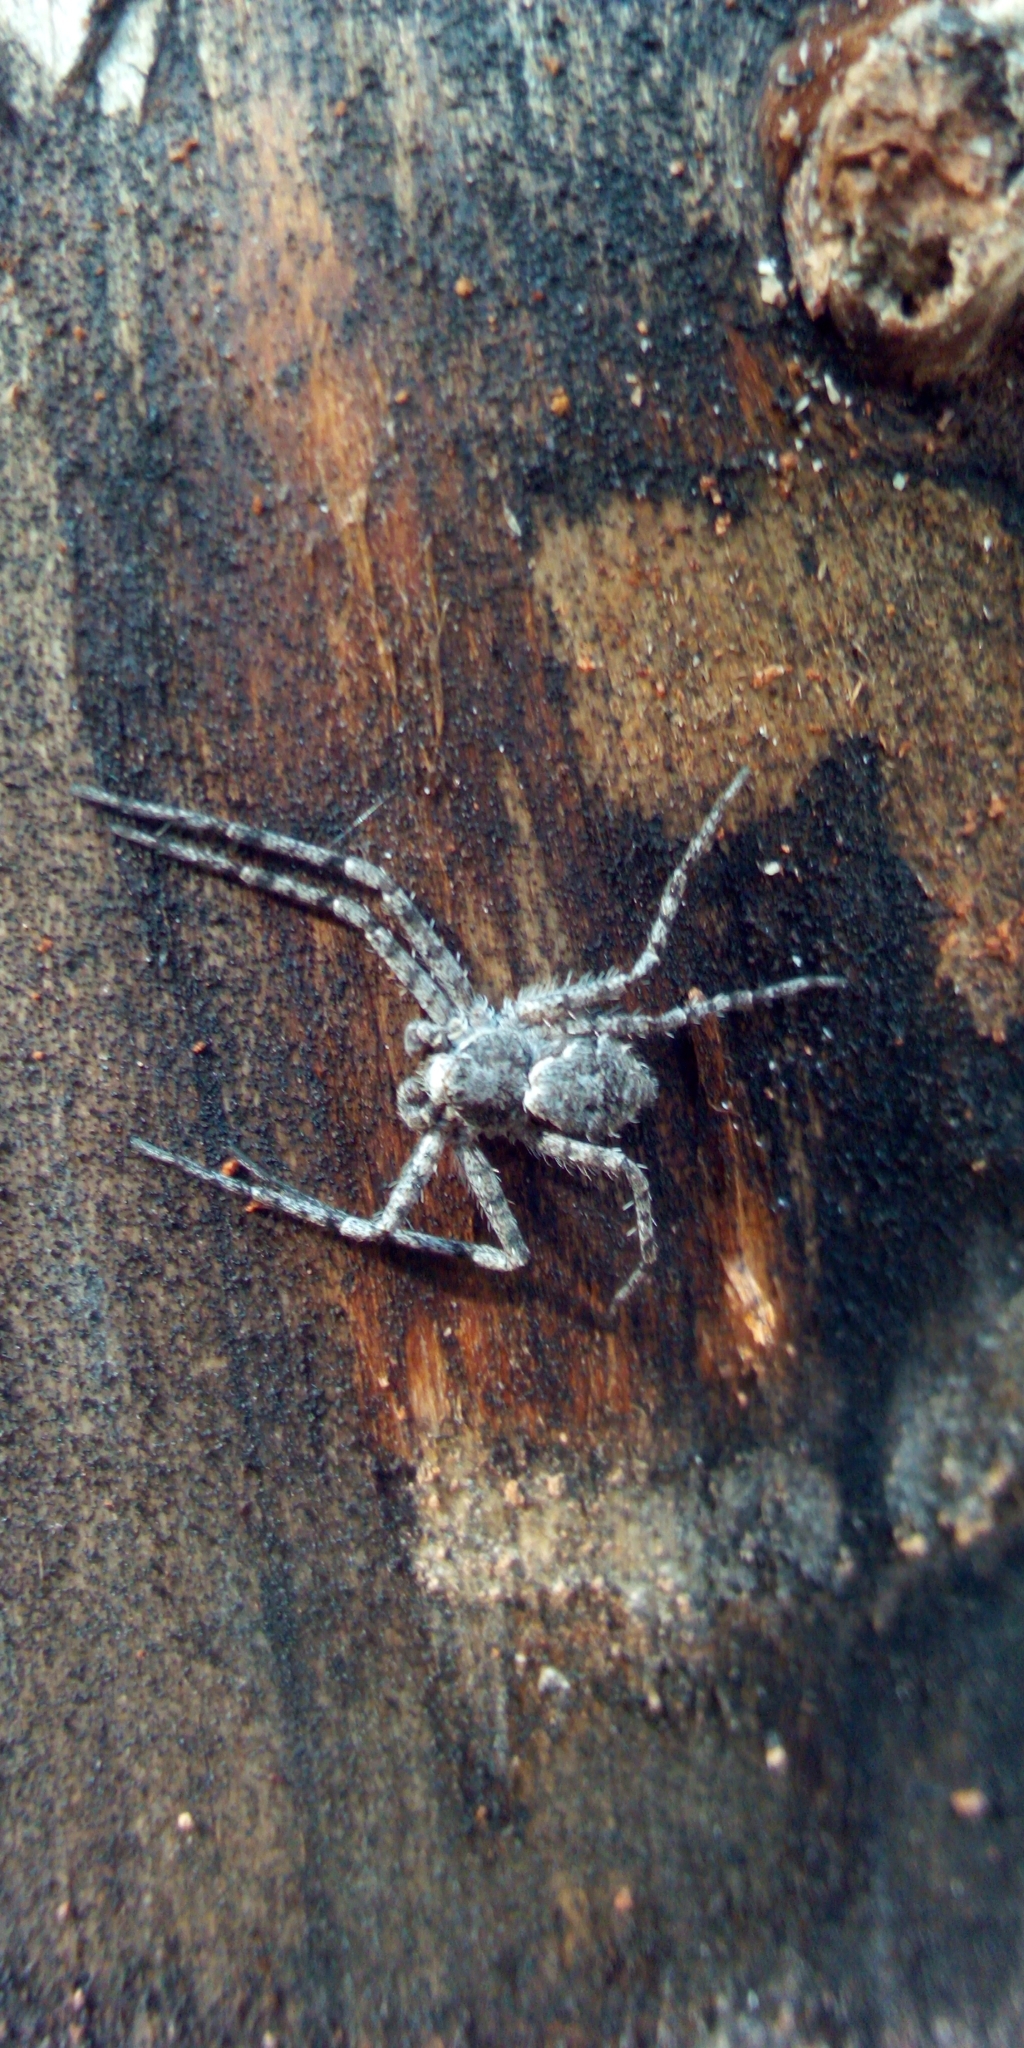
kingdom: Animalia
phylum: Arthropoda
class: Arachnida
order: Araneae
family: Philodromidae
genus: Philodromus
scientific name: Philodromus margaritatus
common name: Lichen running-spider
